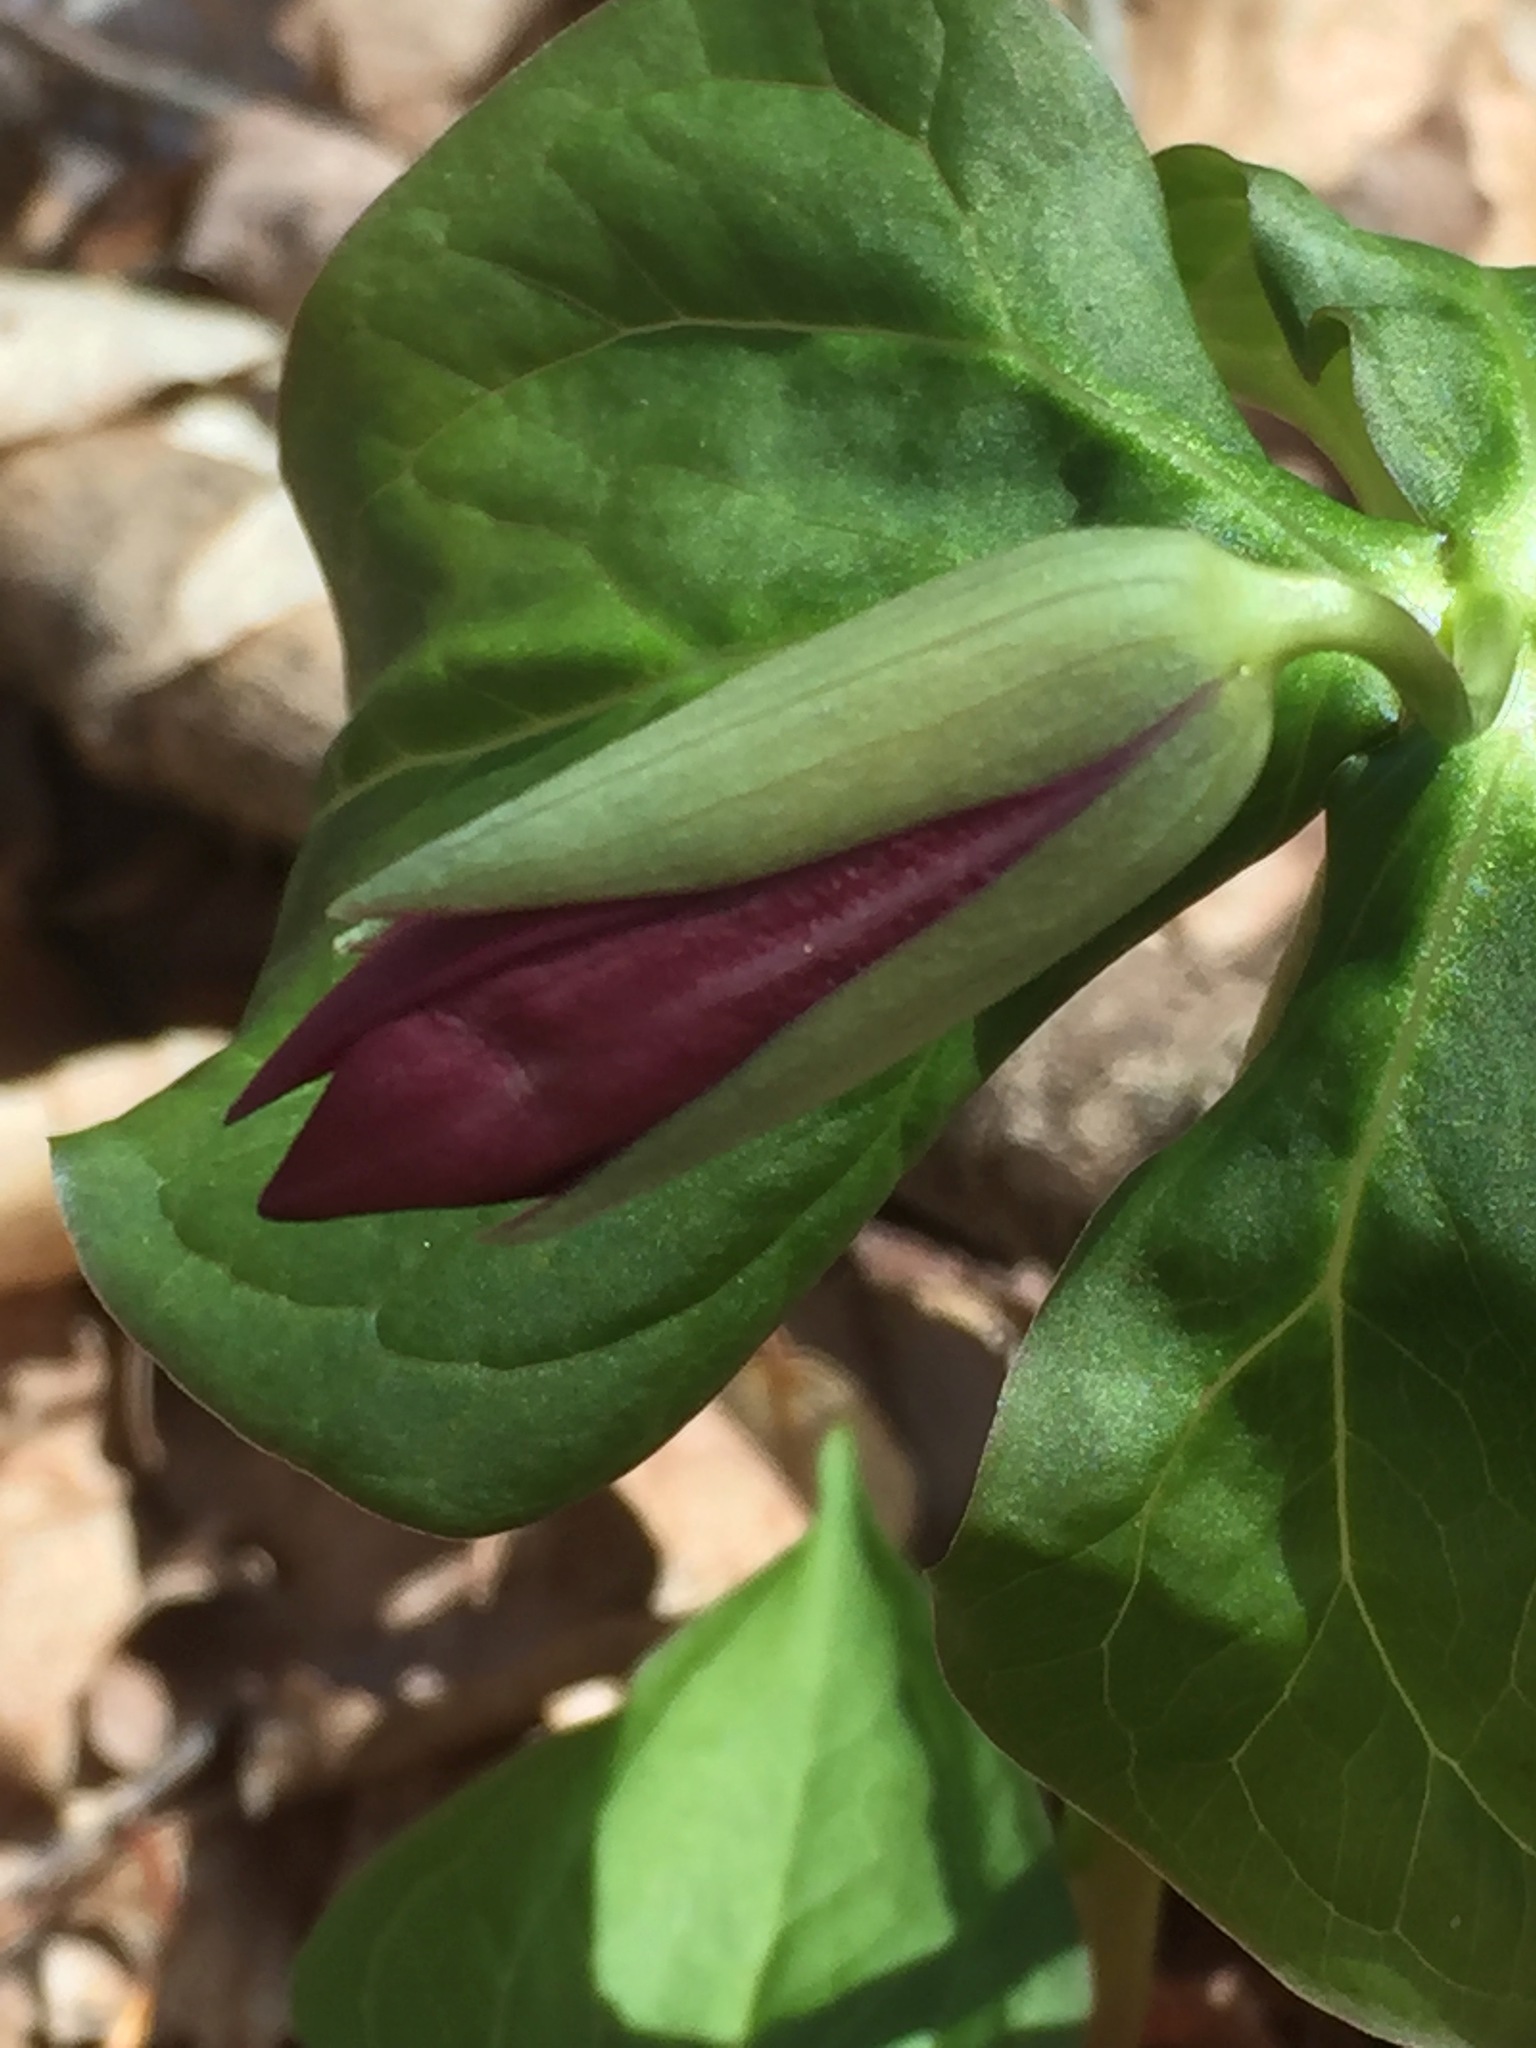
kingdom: Plantae
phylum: Tracheophyta
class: Liliopsida
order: Liliales
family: Melanthiaceae
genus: Trillium
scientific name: Trillium erectum
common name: Purple trillium
